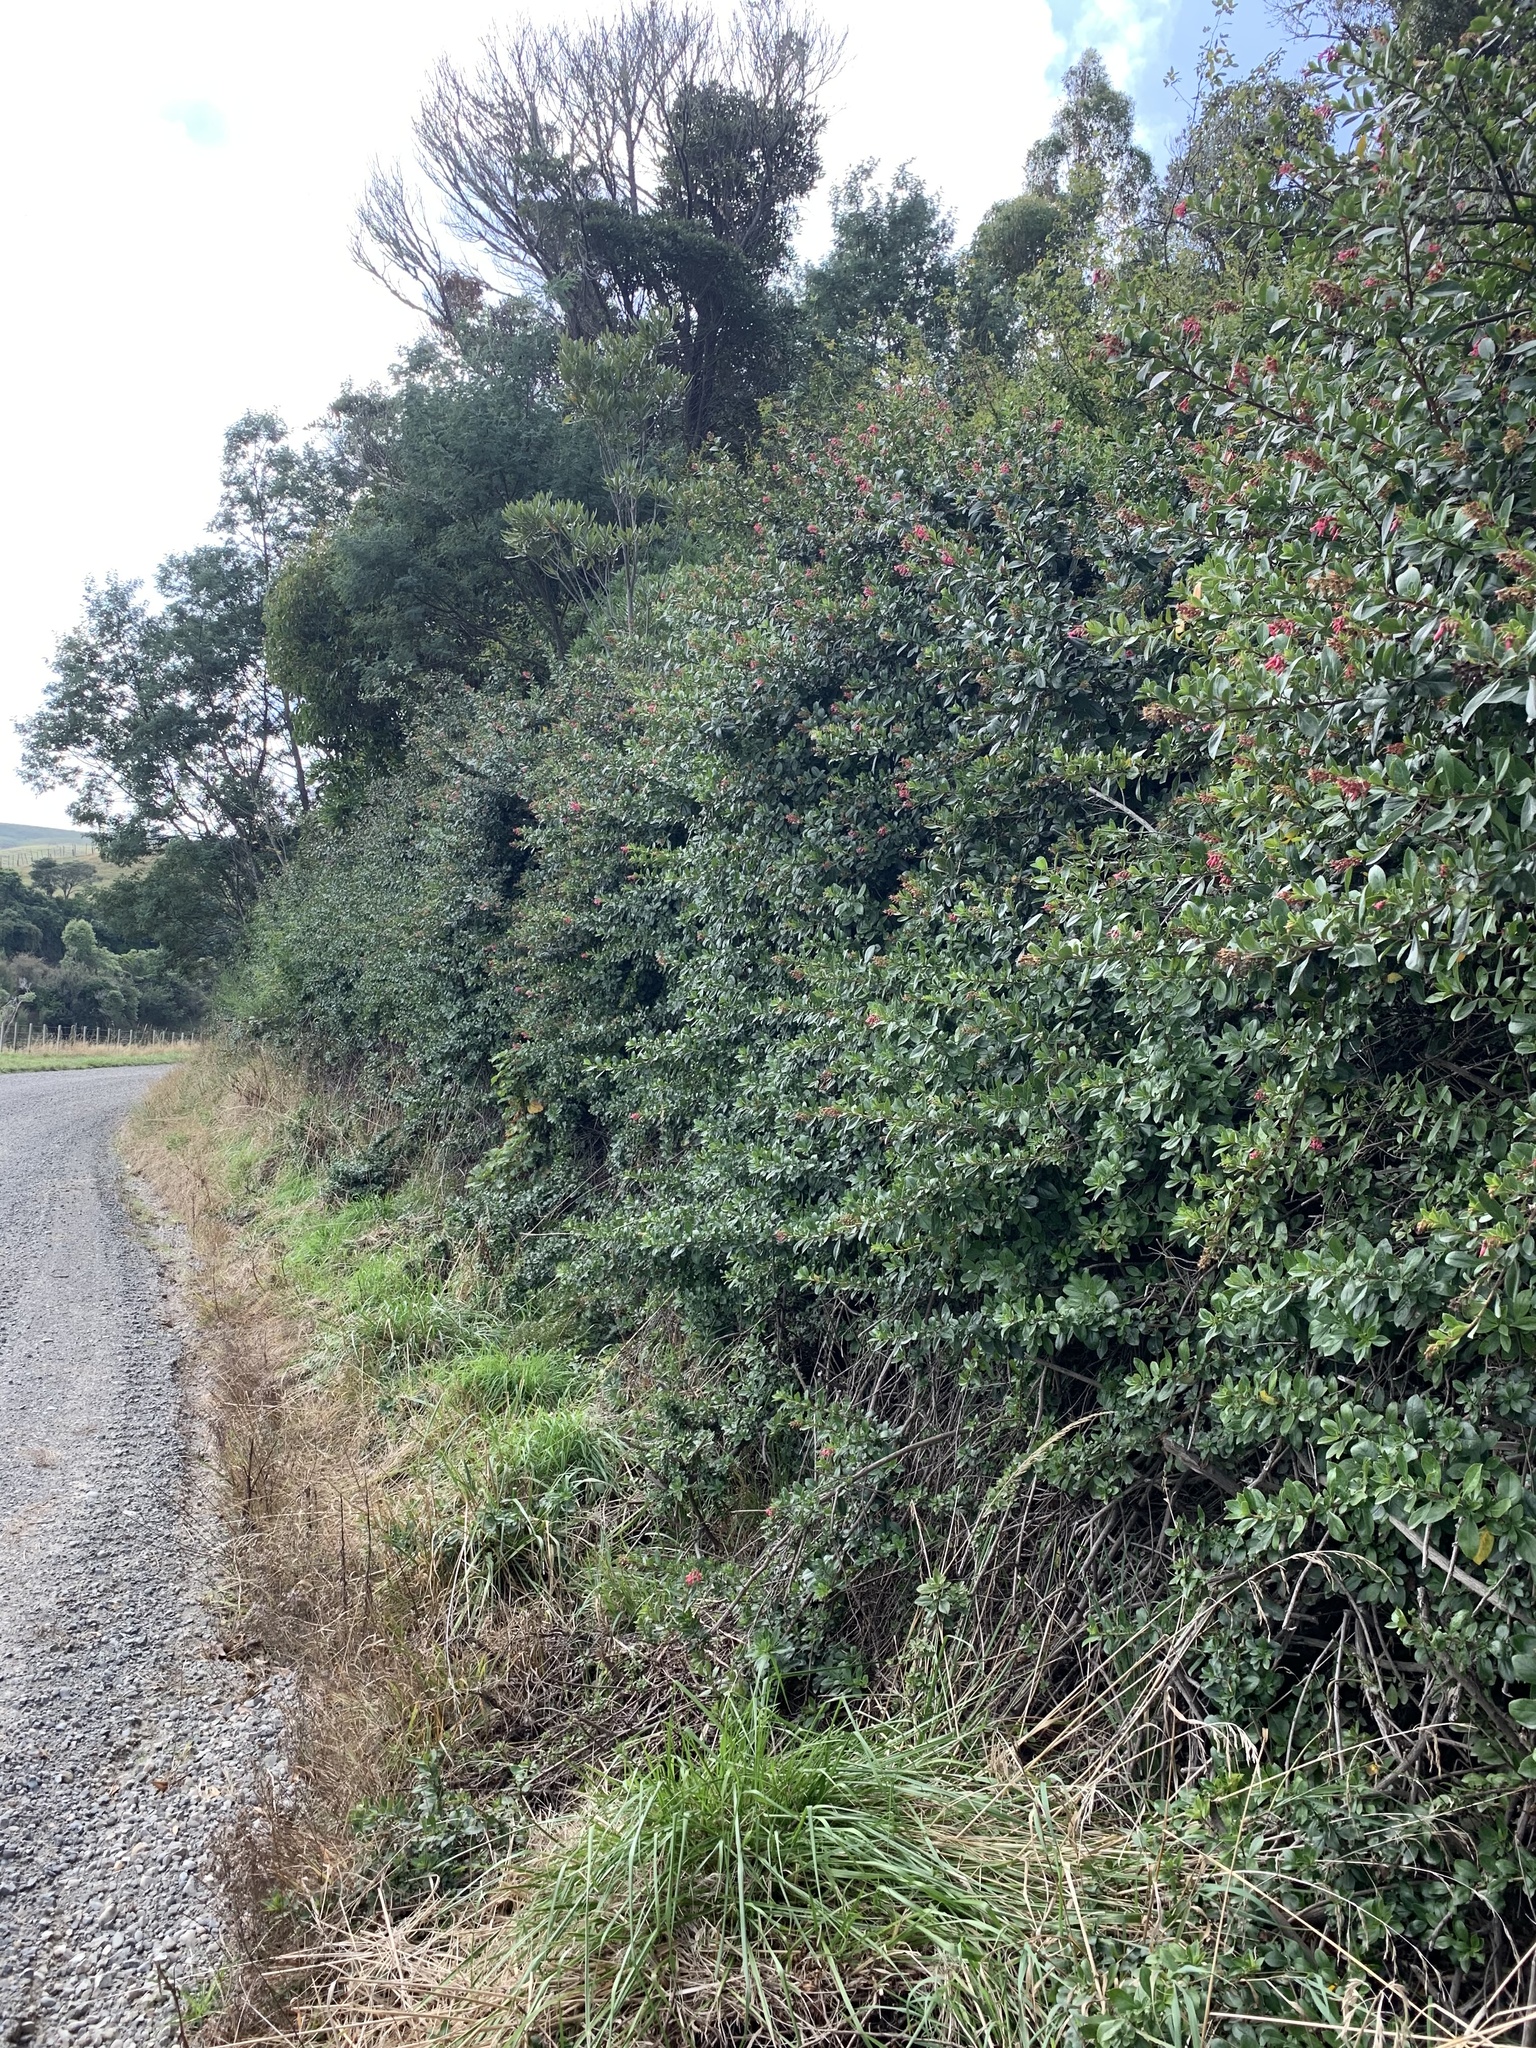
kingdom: Plantae
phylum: Tracheophyta
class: Magnoliopsida
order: Escalloniales
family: Escalloniaceae
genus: Escallonia
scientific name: Escallonia rubra
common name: Redclaws
